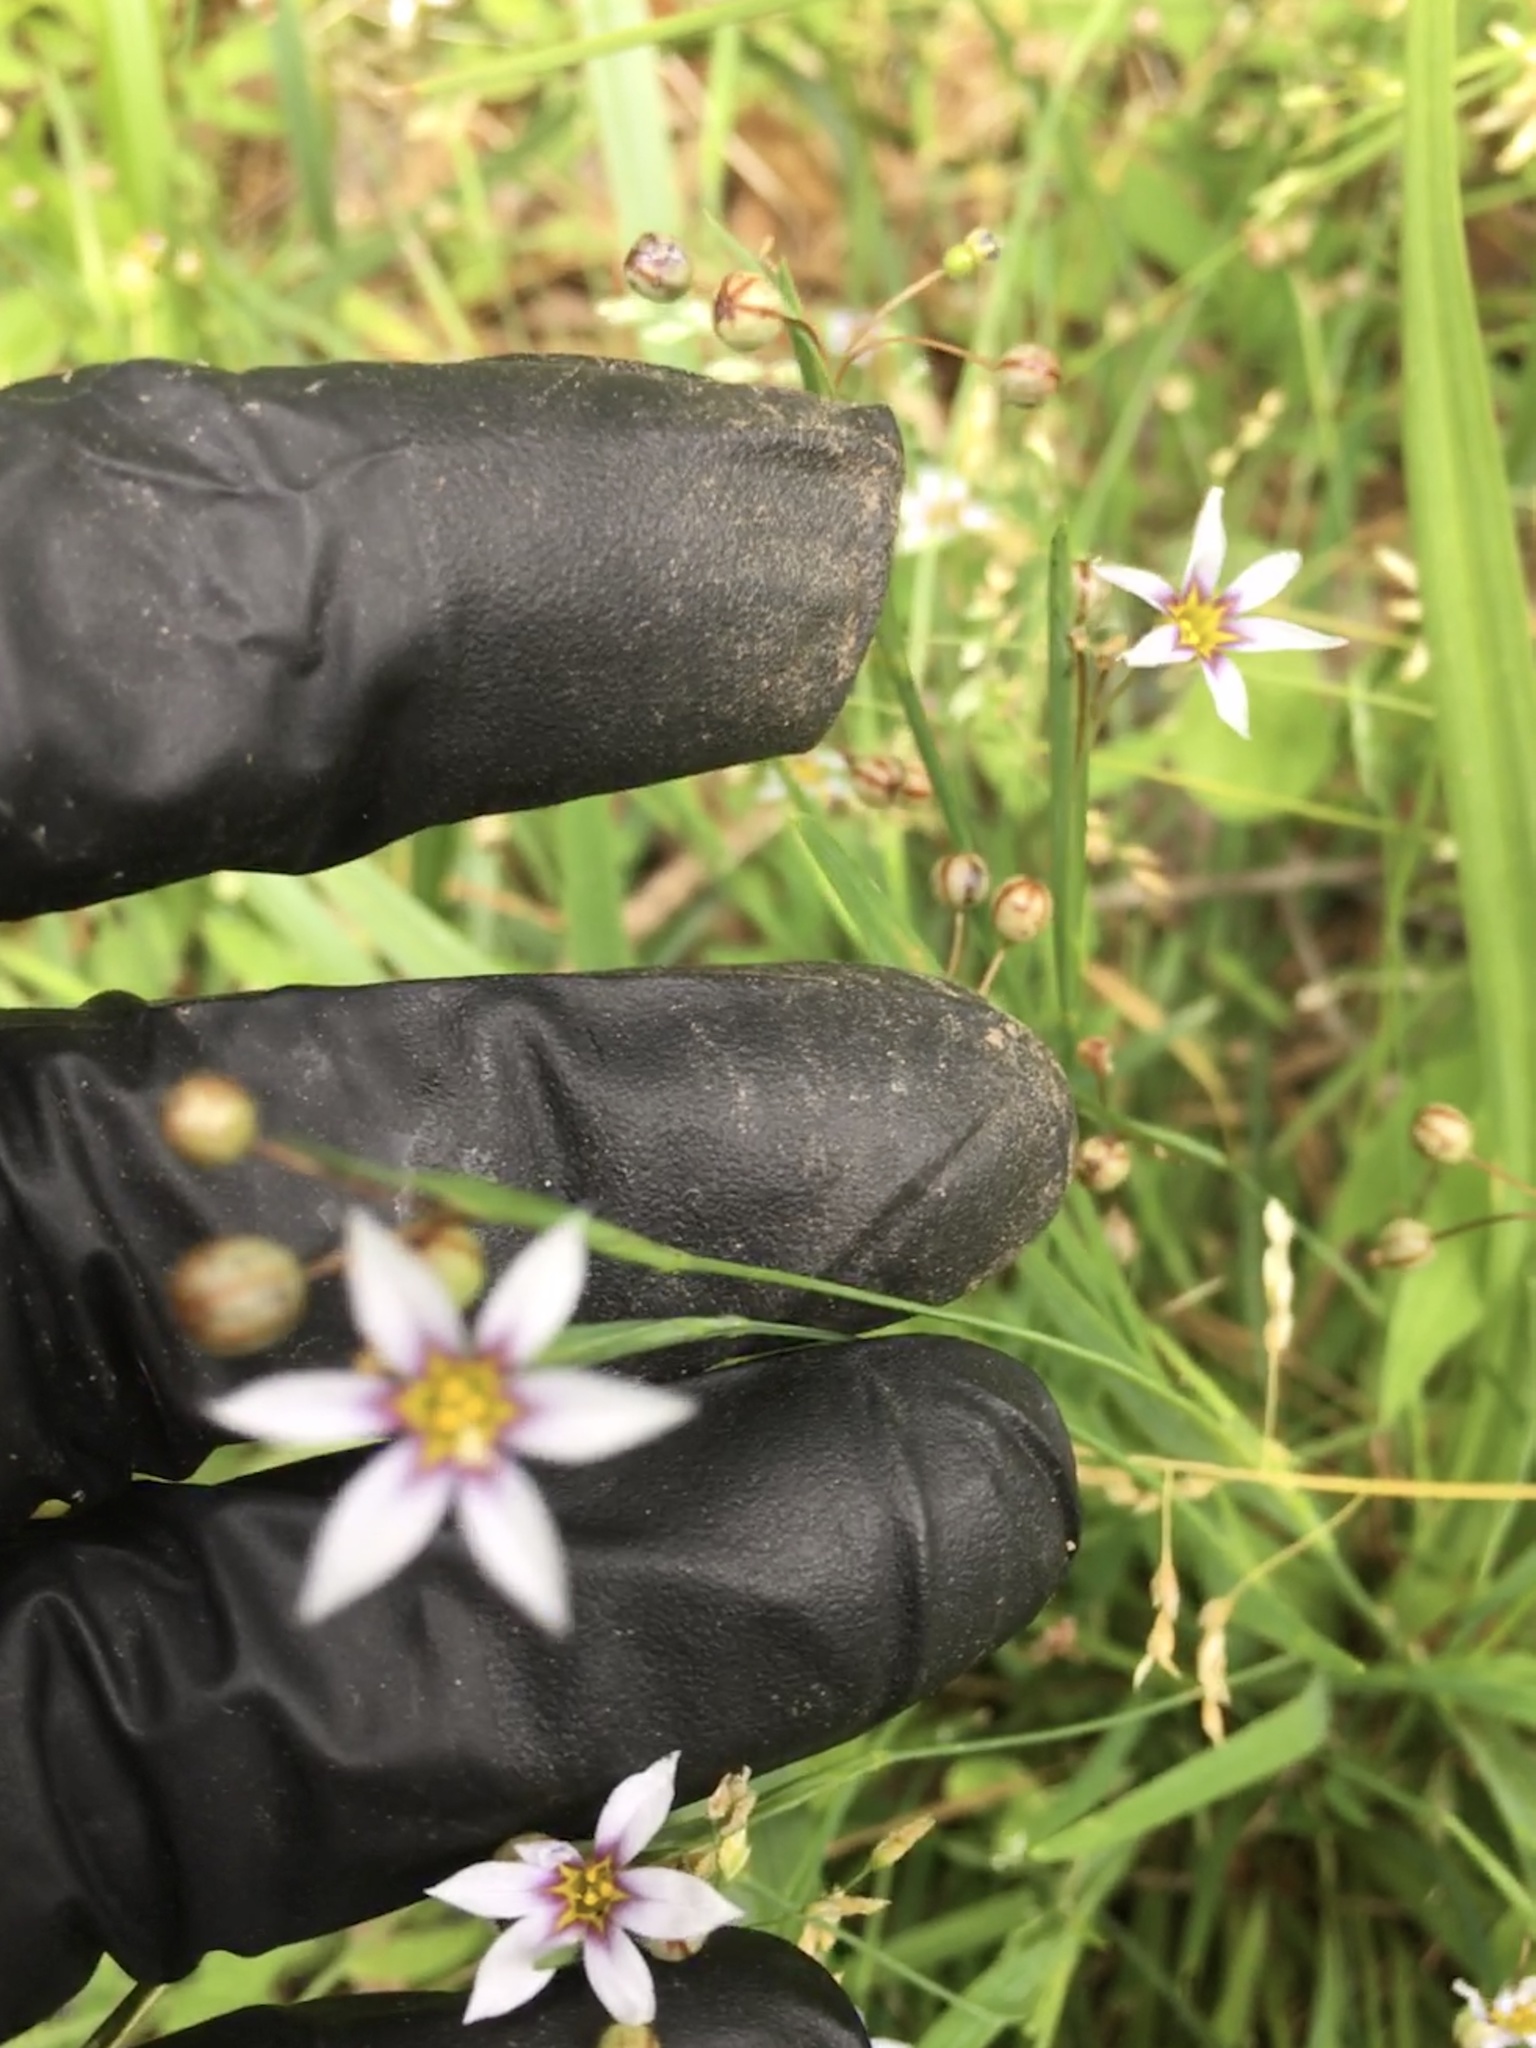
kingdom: Plantae
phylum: Tracheophyta
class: Liliopsida
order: Asparagales
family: Iridaceae
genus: Sisyrinchium
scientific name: Sisyrinchium micranthum
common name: Bermuda pigroot
